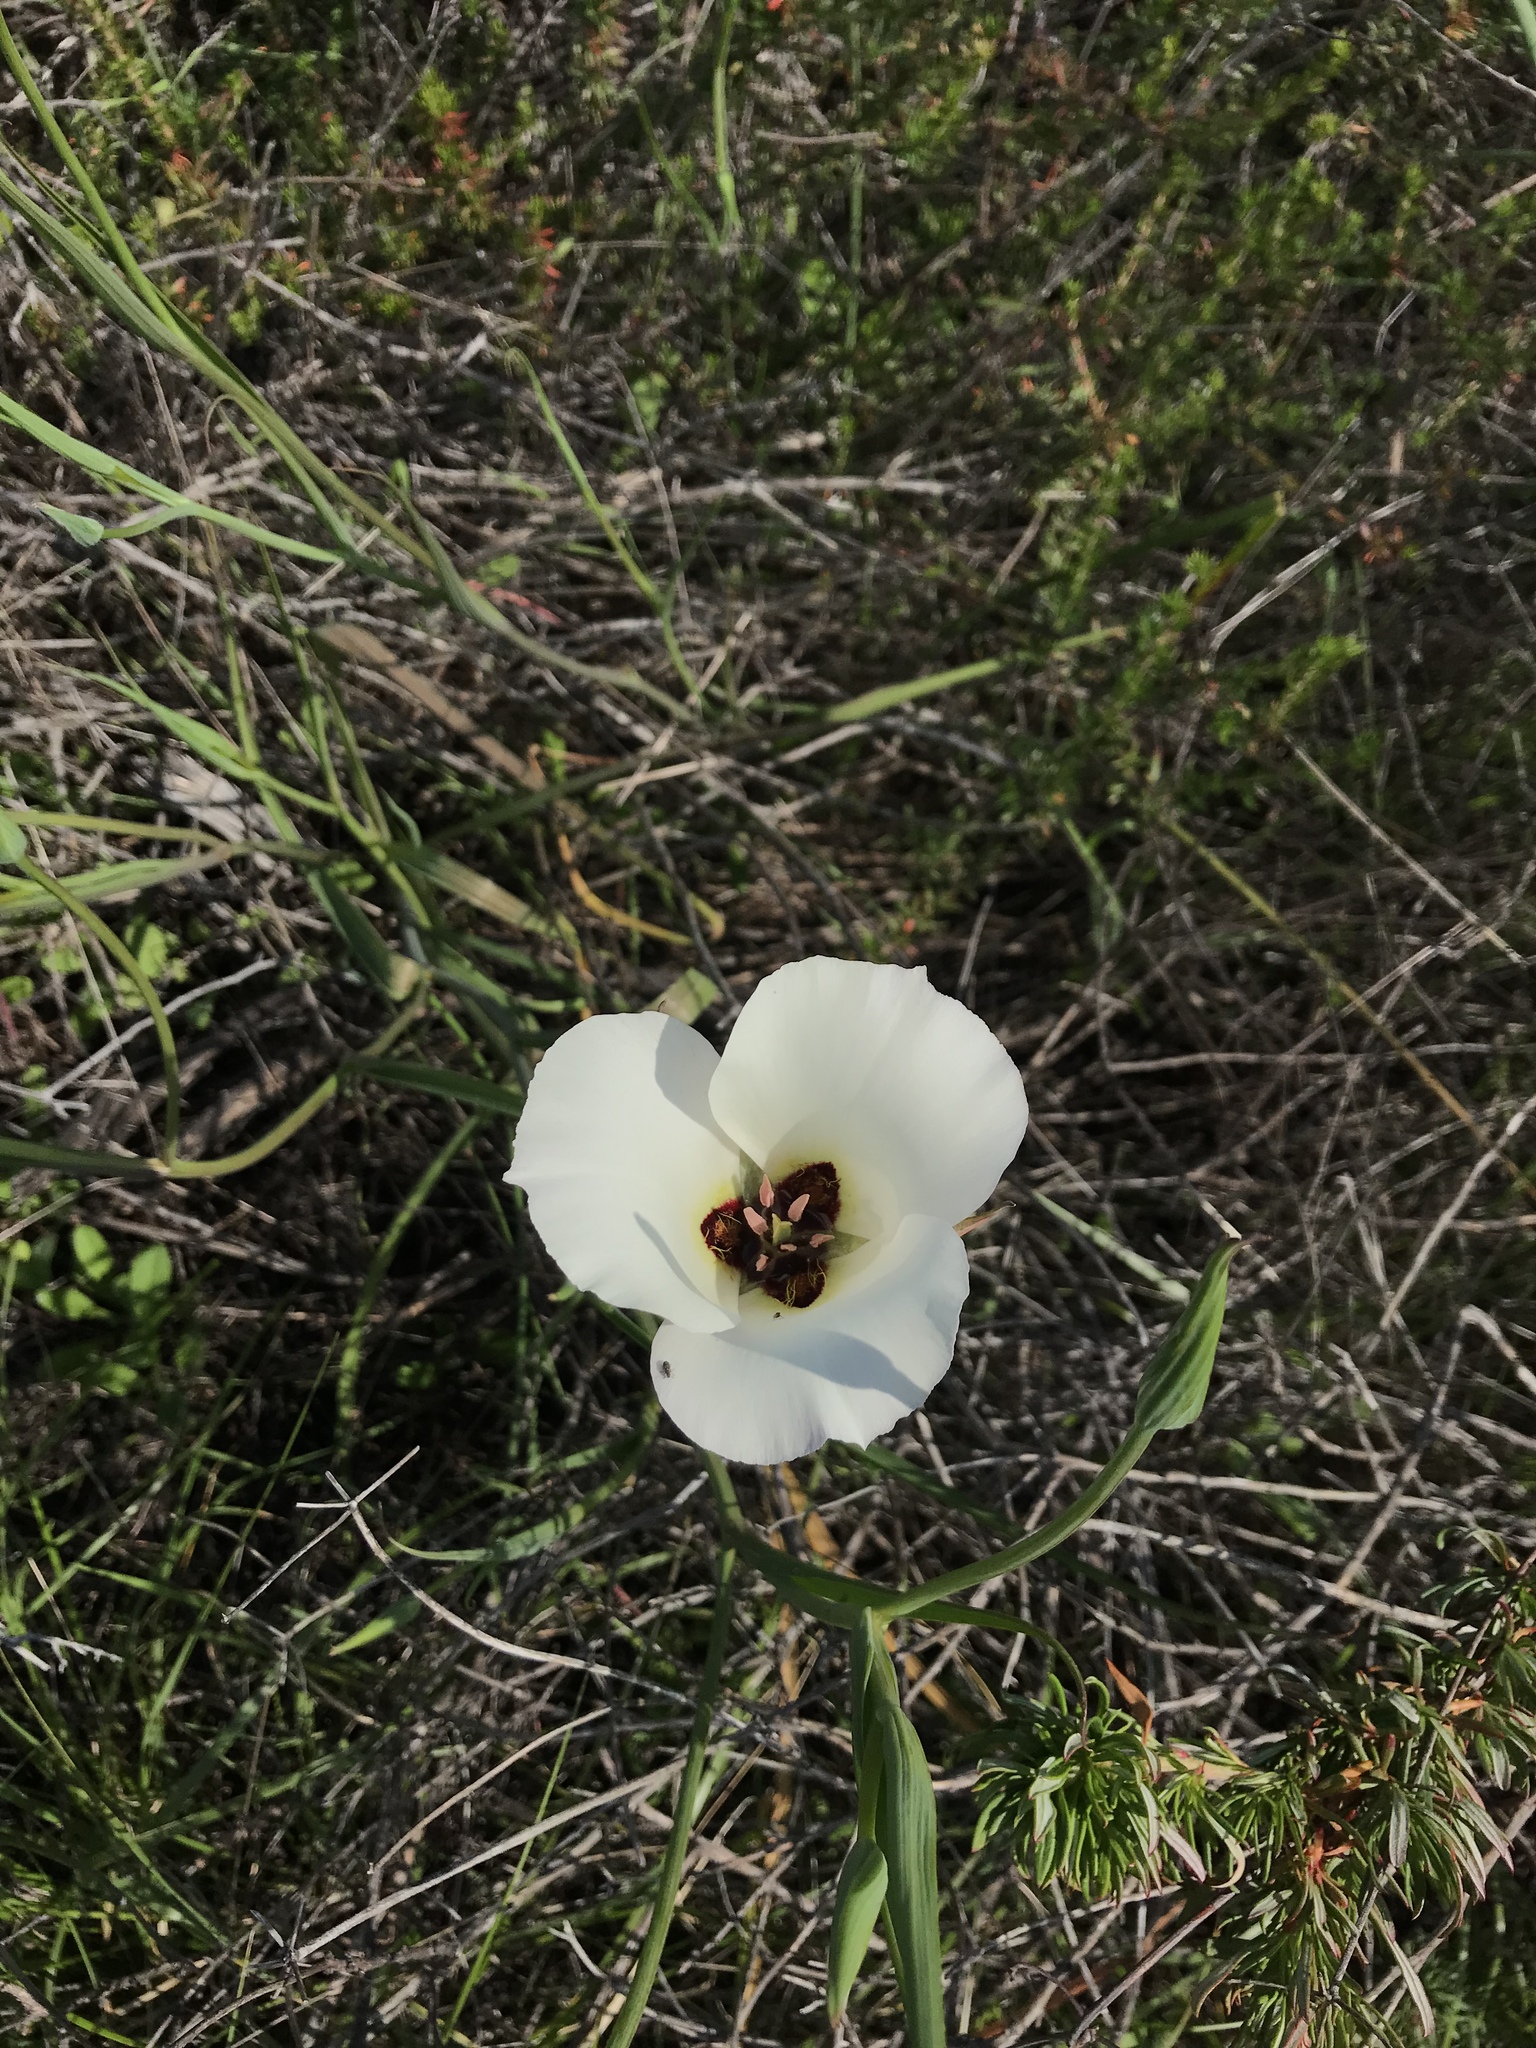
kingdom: Plantae
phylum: Tracheophyta
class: Liliopsida
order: Liliales
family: Liliaceae
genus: Calochortus
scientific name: Calochortus catalinae
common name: Catalina mariposa-lily
